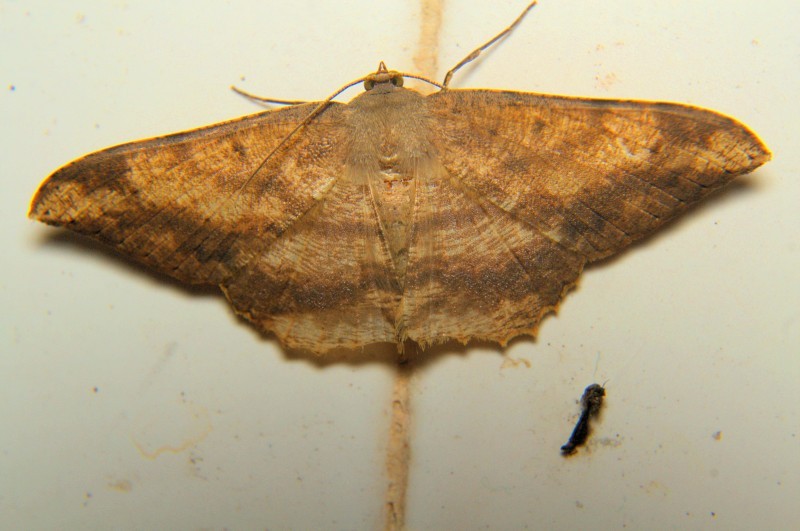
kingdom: Animalia
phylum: Arthropoda
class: Insecta
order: Lepidoptera
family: Geometridae
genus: Luxiaria
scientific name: Luxiaria amasa
